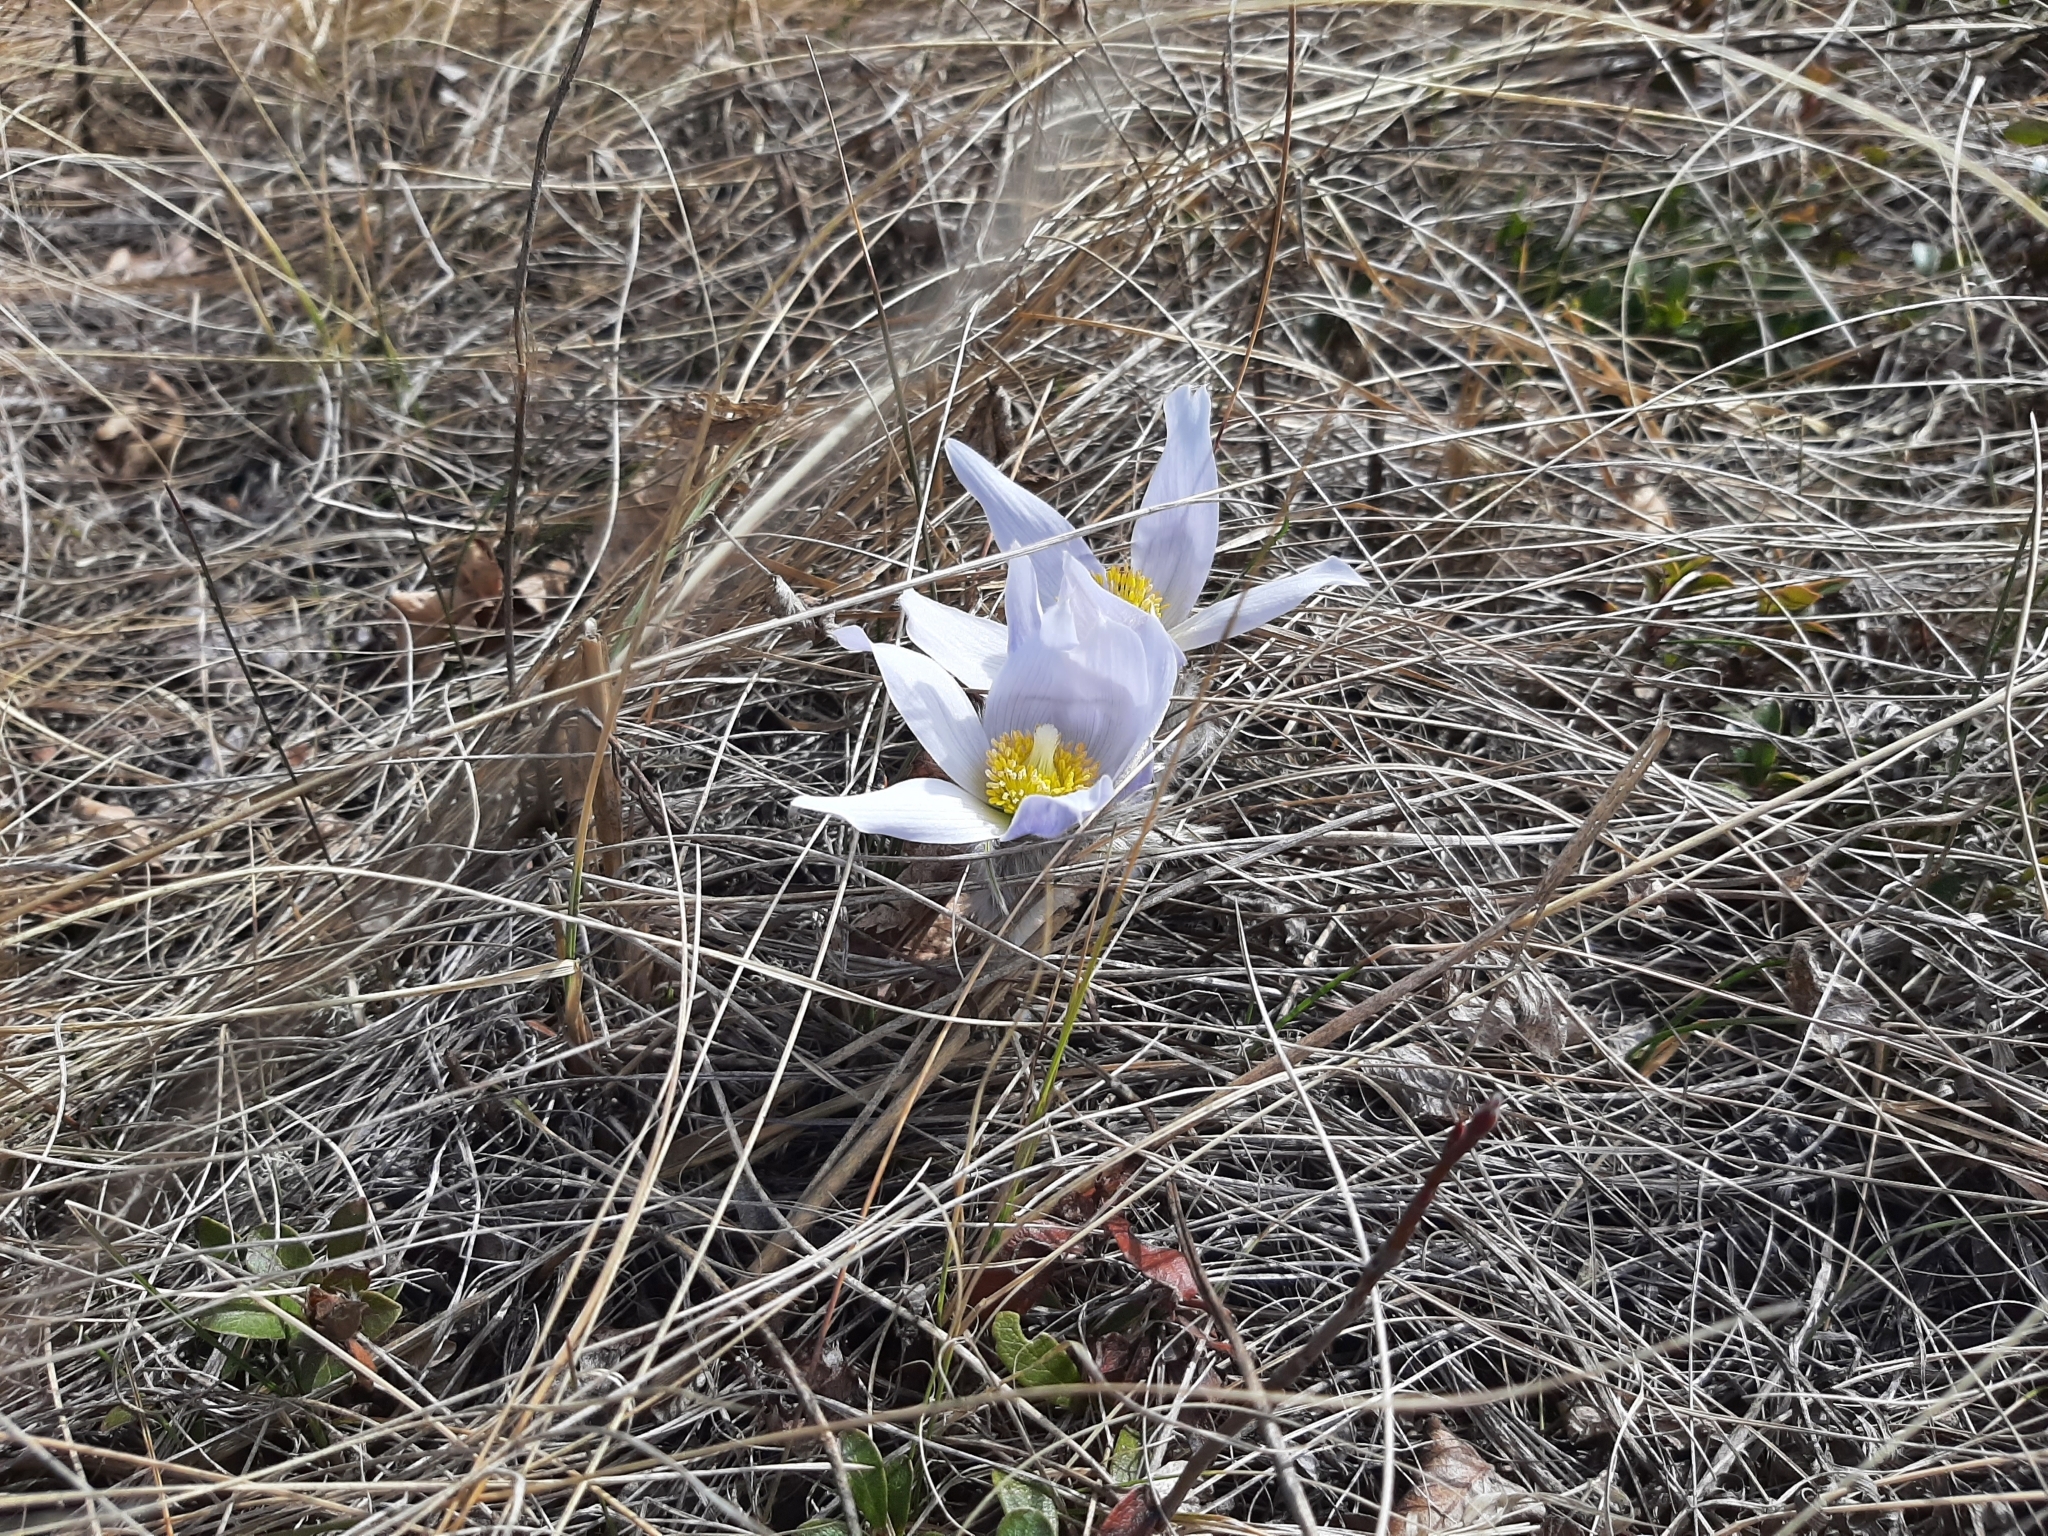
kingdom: Plantae
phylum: Tracheophyta
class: Magnoliopsida
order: Ranunculales
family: Ranunculaceae
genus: Pulsatilla
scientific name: Pulsatilla nuttalliana
